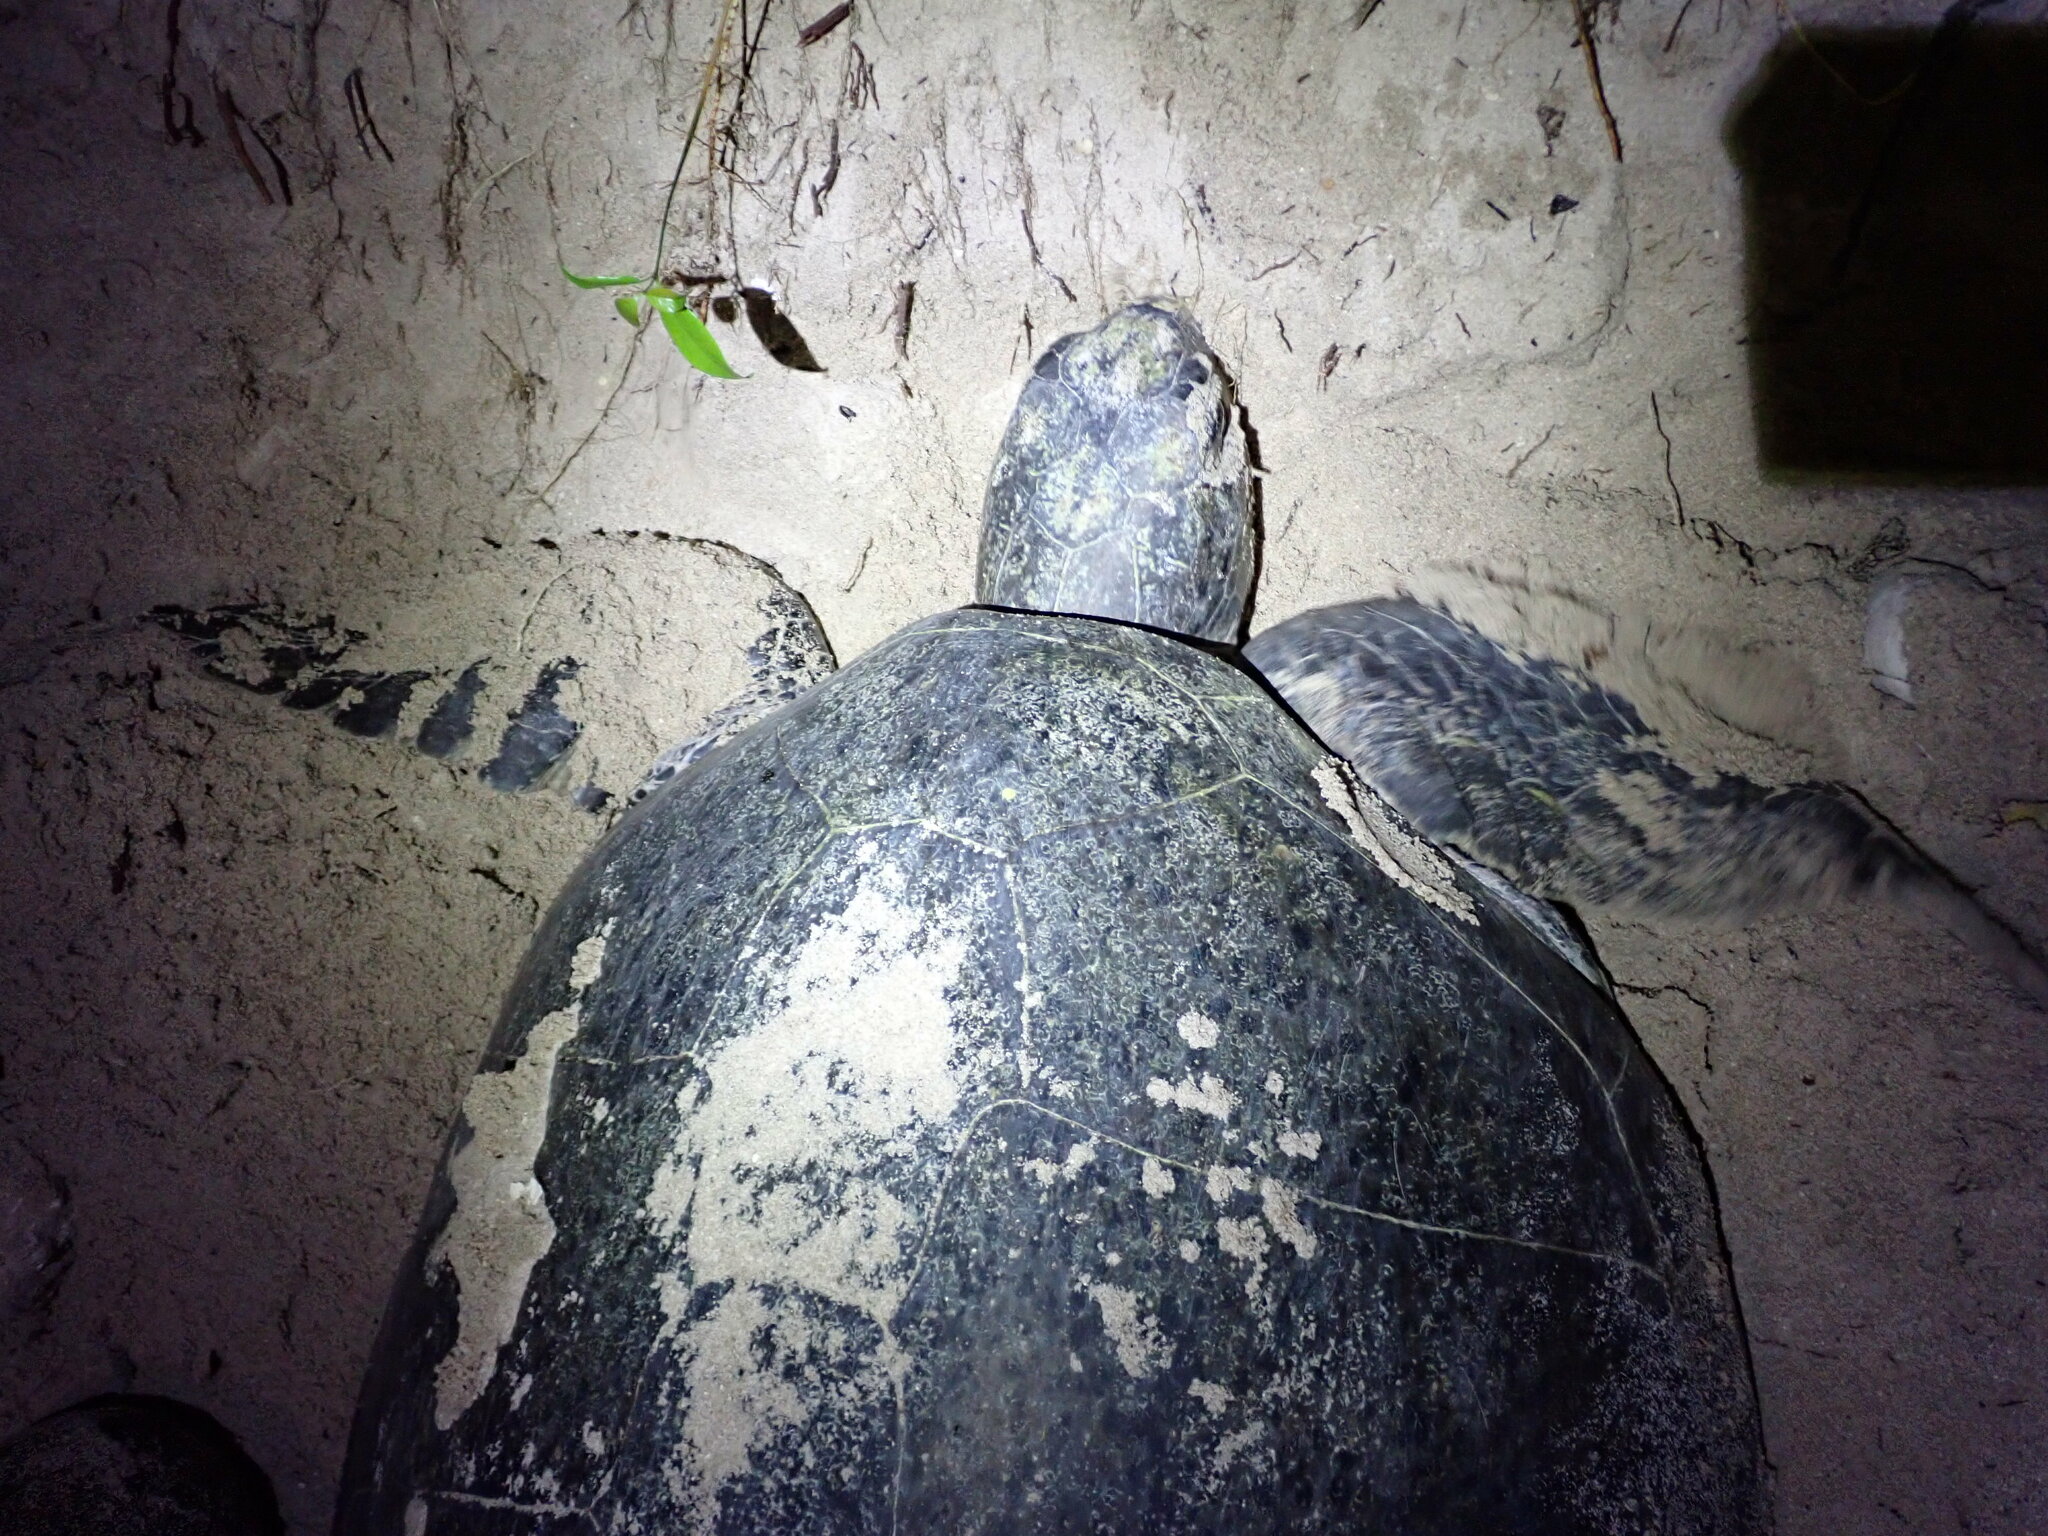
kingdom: Animalia
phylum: Chordata
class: Testudines
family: Cheloniidae
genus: Chelonia
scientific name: Chelonia mydas
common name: Green turtle
